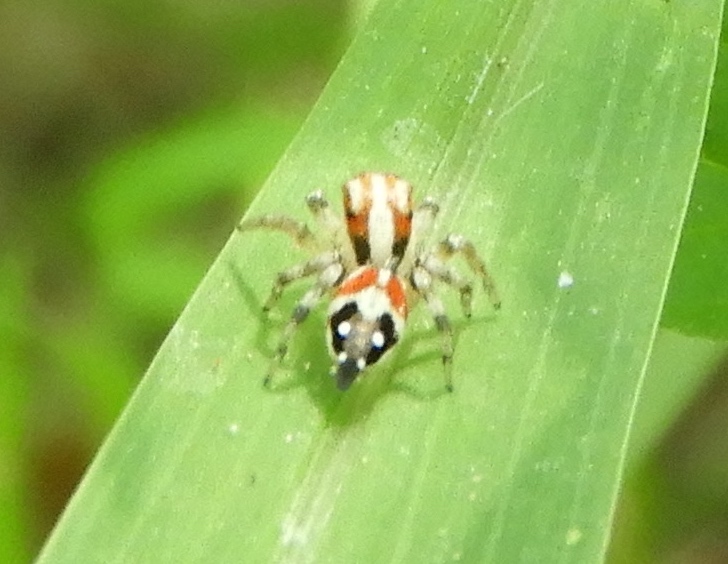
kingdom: Animalia
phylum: Arthropoda
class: Arachnida
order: Araneae
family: Salticidae
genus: Nycerella
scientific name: Nycerella delecta
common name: Jumping spiders
